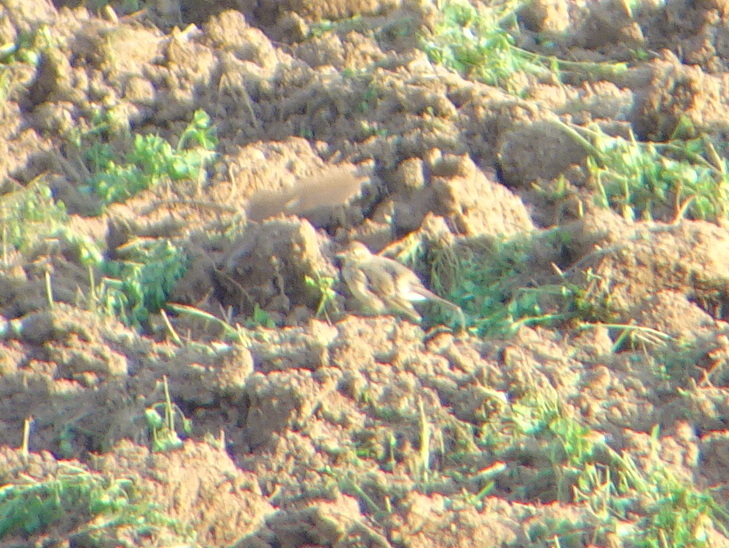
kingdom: Animalia
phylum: Chordata
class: Aves
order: Passeriformes
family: Motacillidae
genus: Anthus
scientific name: Anthus rubescens
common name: Buff-bellied pipit
